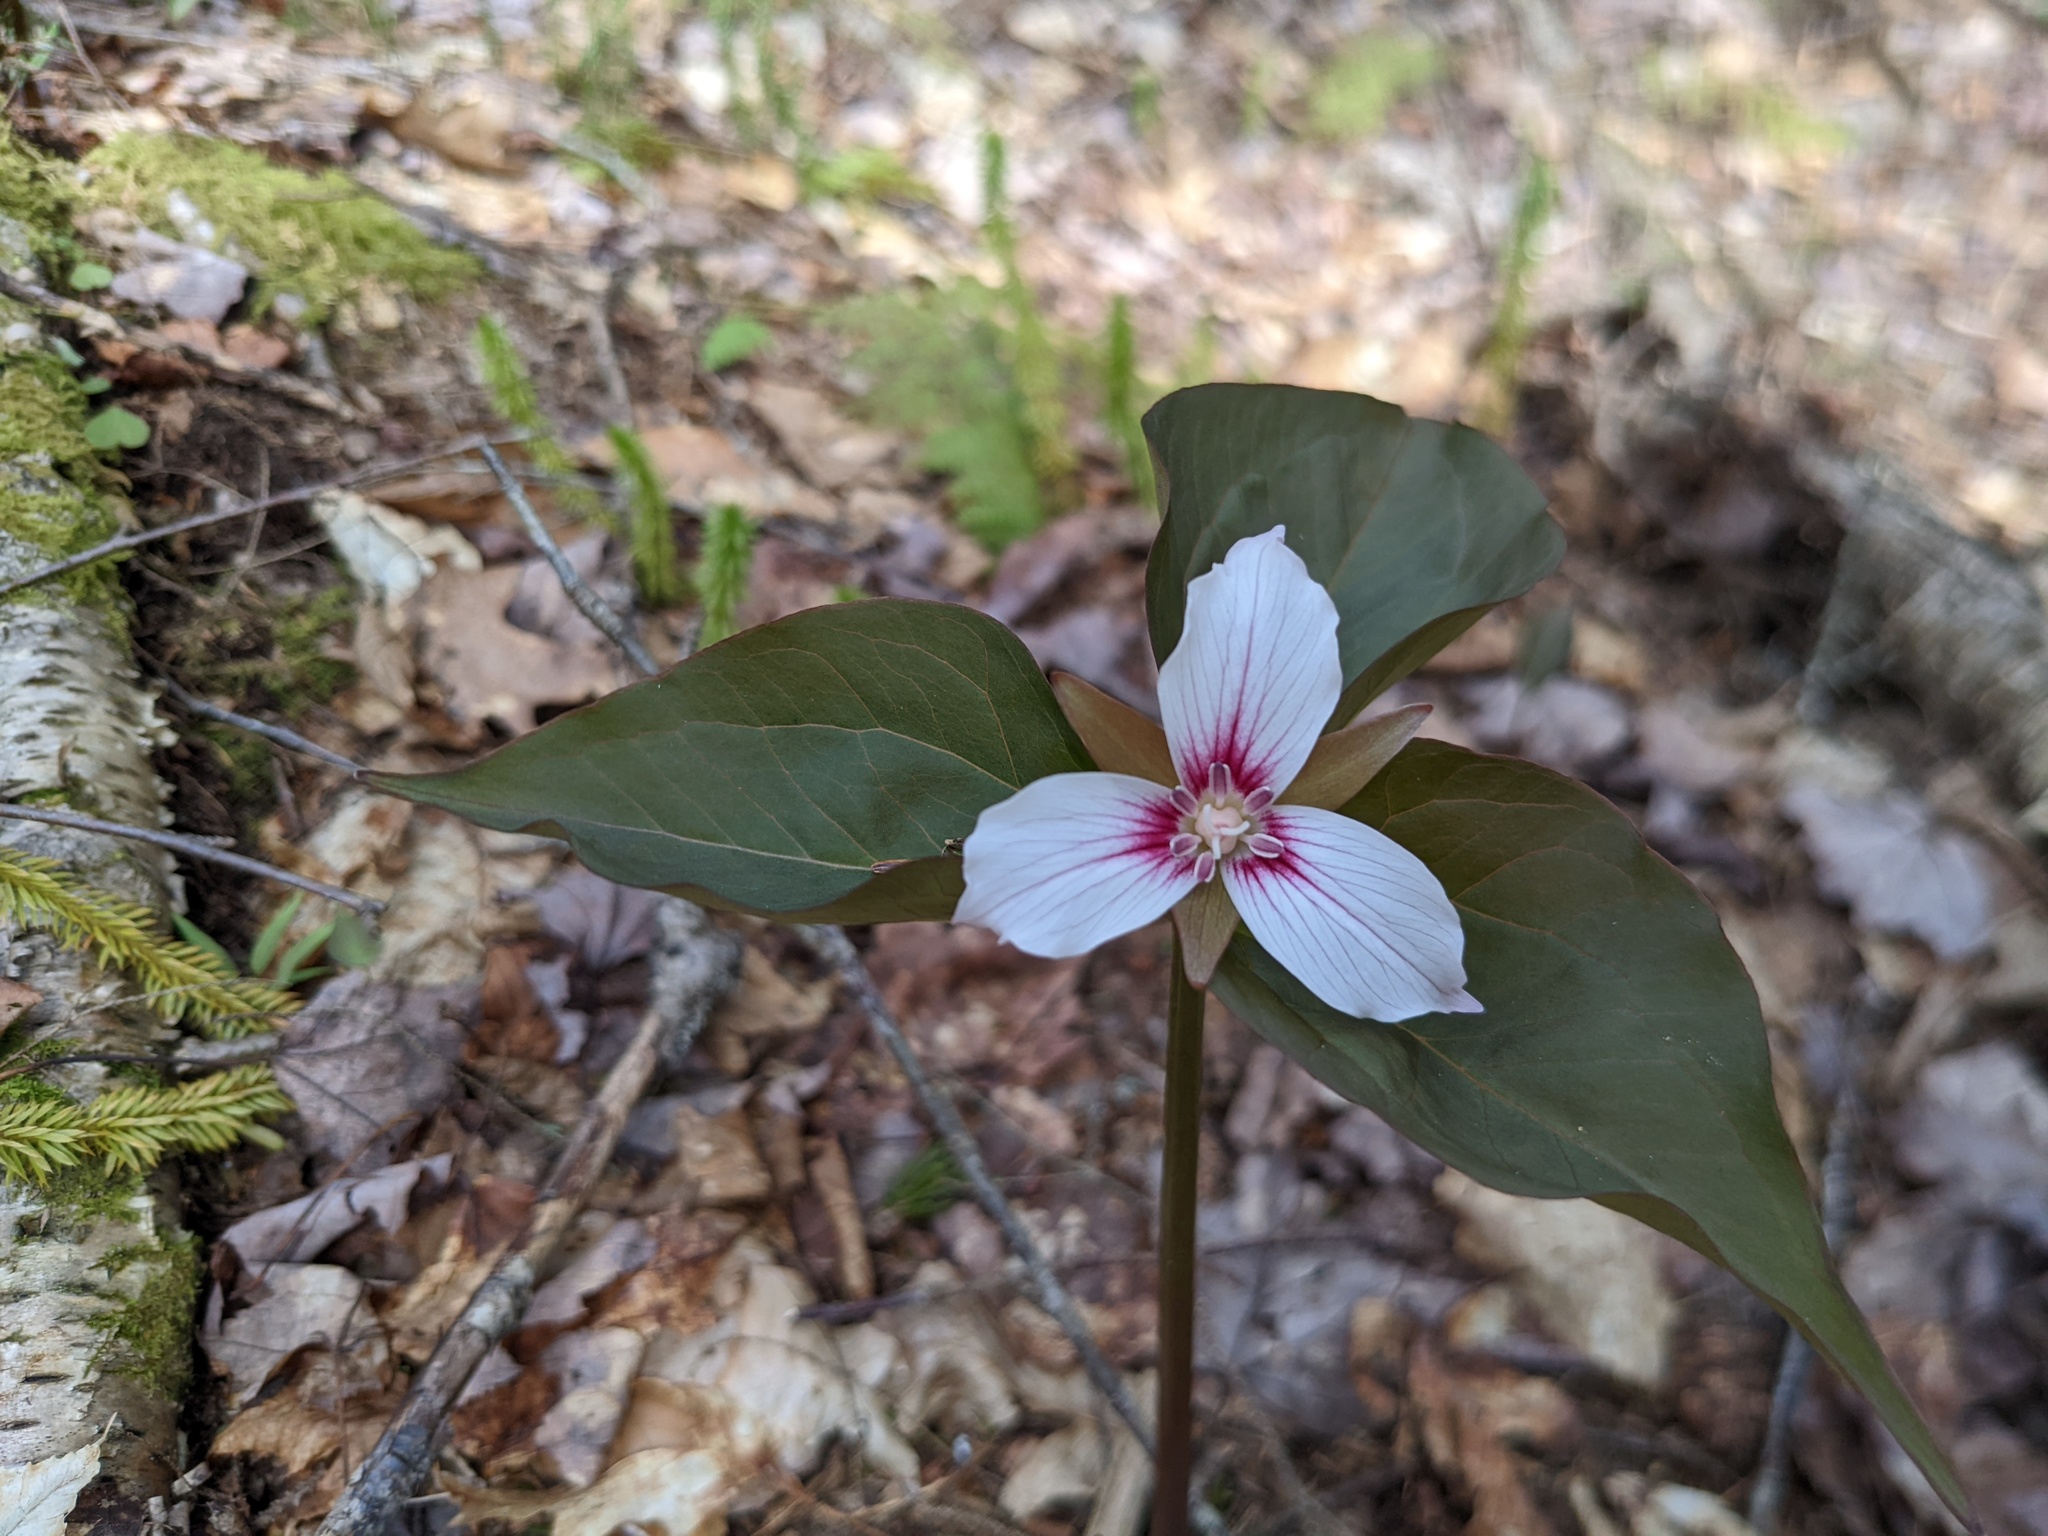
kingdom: Plantae
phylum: Tracheophyta
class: Liliopsida
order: Liliales
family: Melanthiaceae
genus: Trillium
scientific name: Trillium undulatum
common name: Paint trillium
